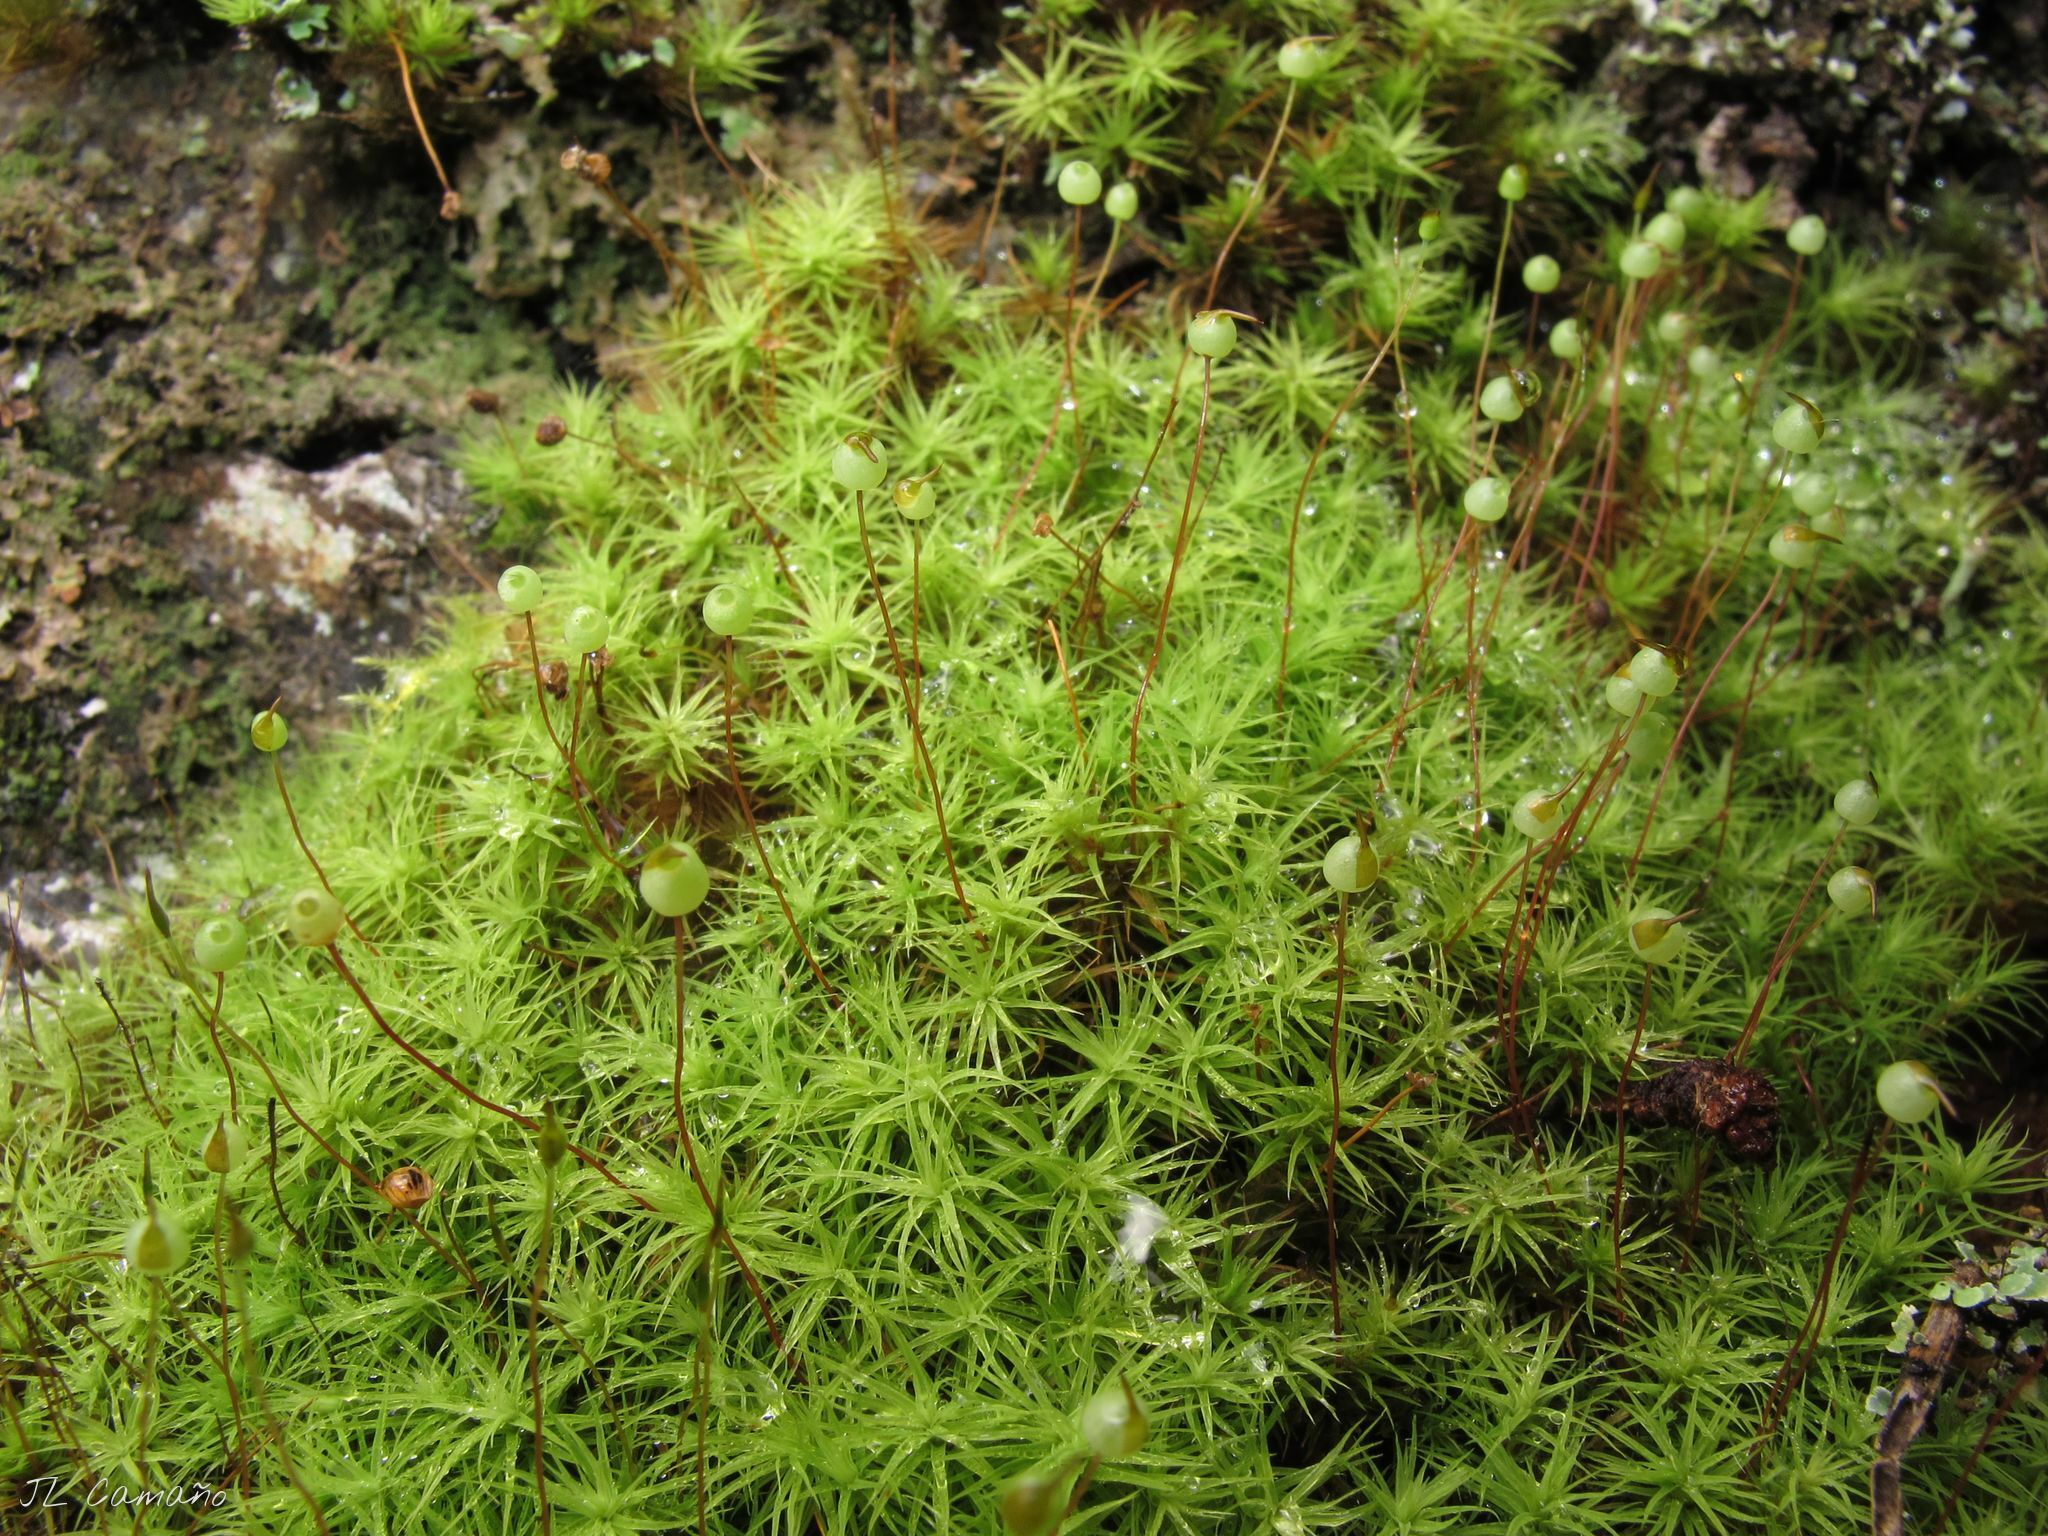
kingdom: Plantae
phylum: Bryophyta
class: Bryopsida
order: Bartramiales
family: Bartramiaceae
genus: Bartramia
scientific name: Bartramia ithyphylla
